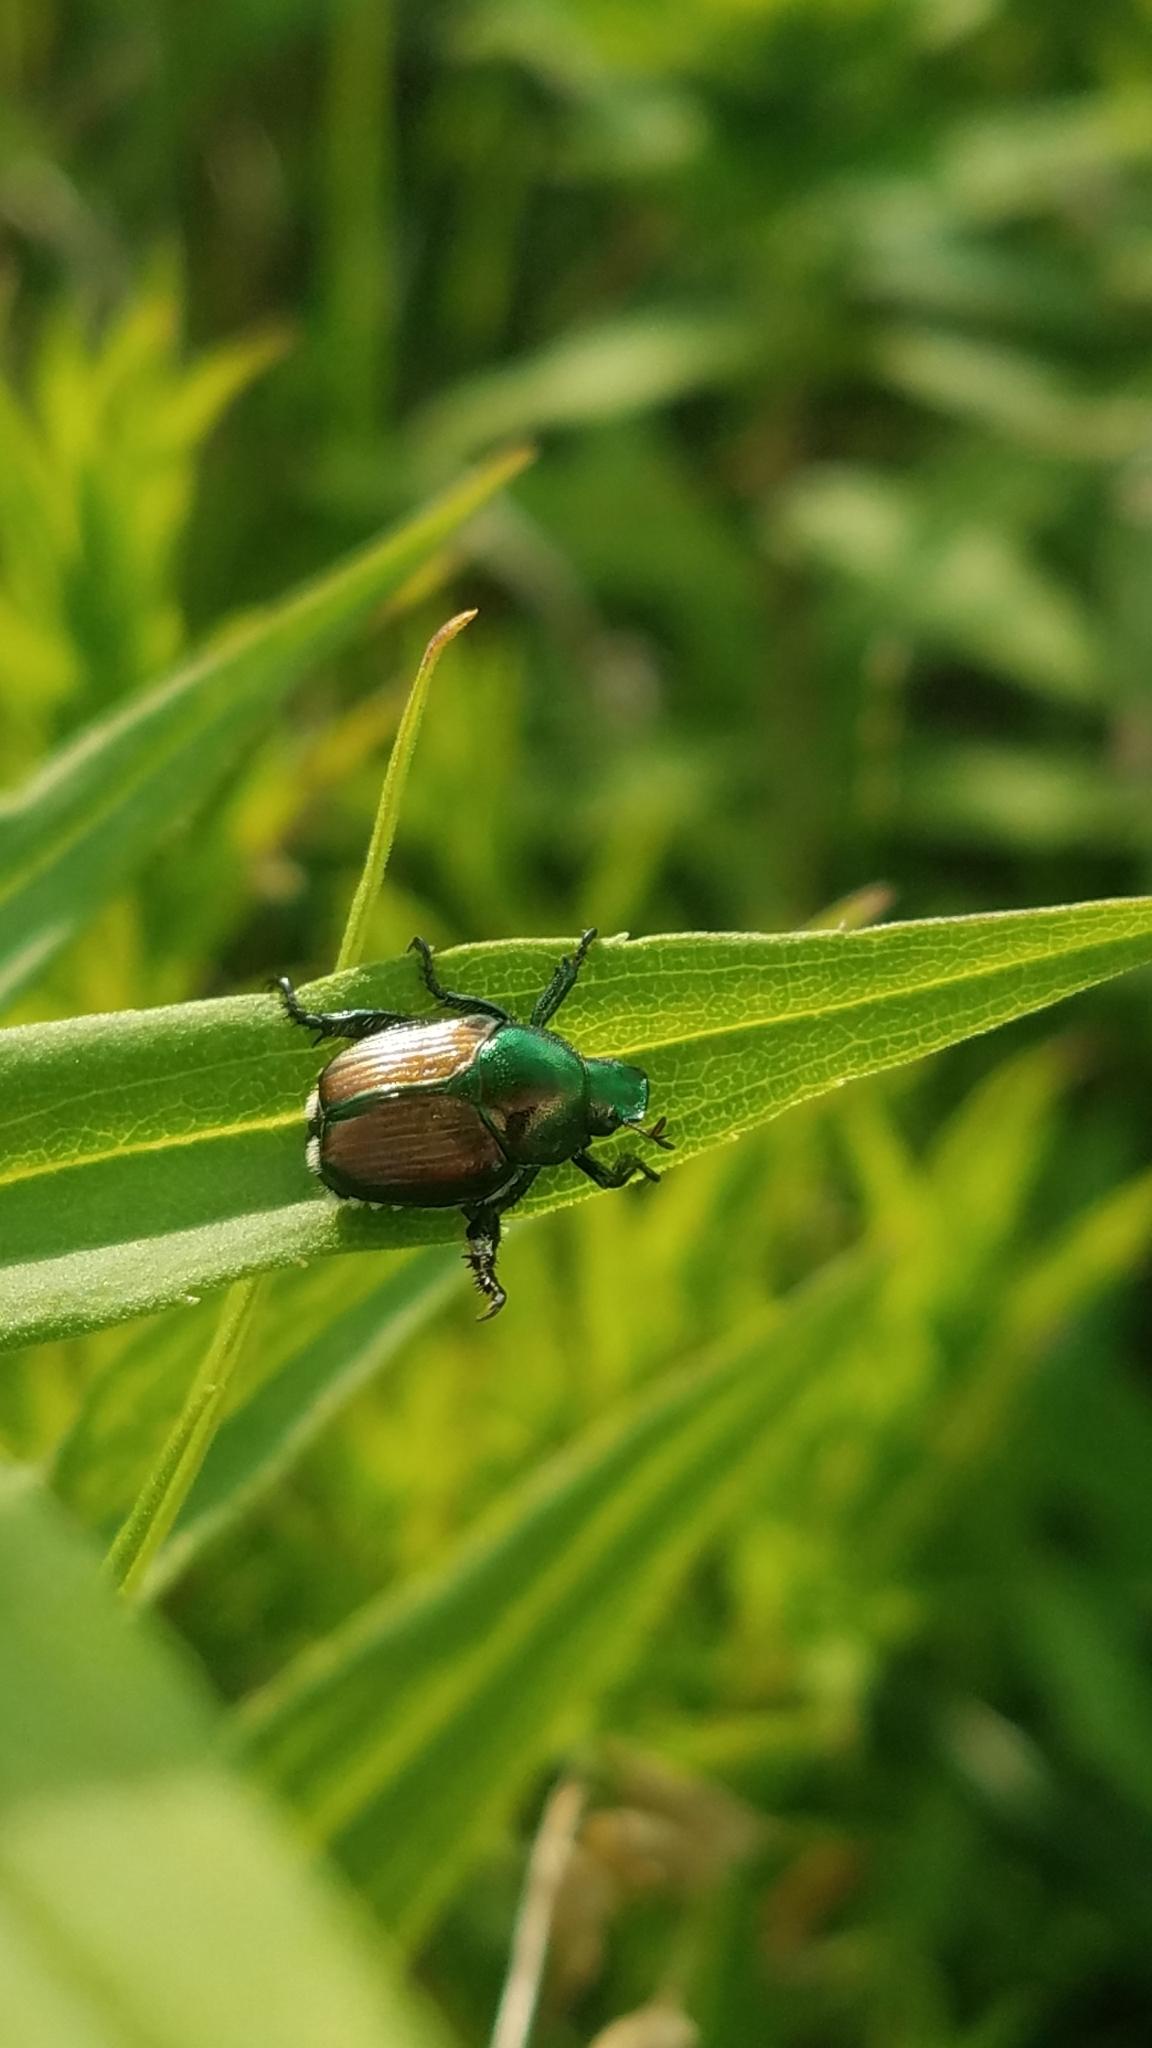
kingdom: Animalia
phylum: Arthropoda
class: Insecta
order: Coleoptera
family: Scarabaeidae
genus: Popillia
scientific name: Popillia japonica
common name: Japanese beetle
